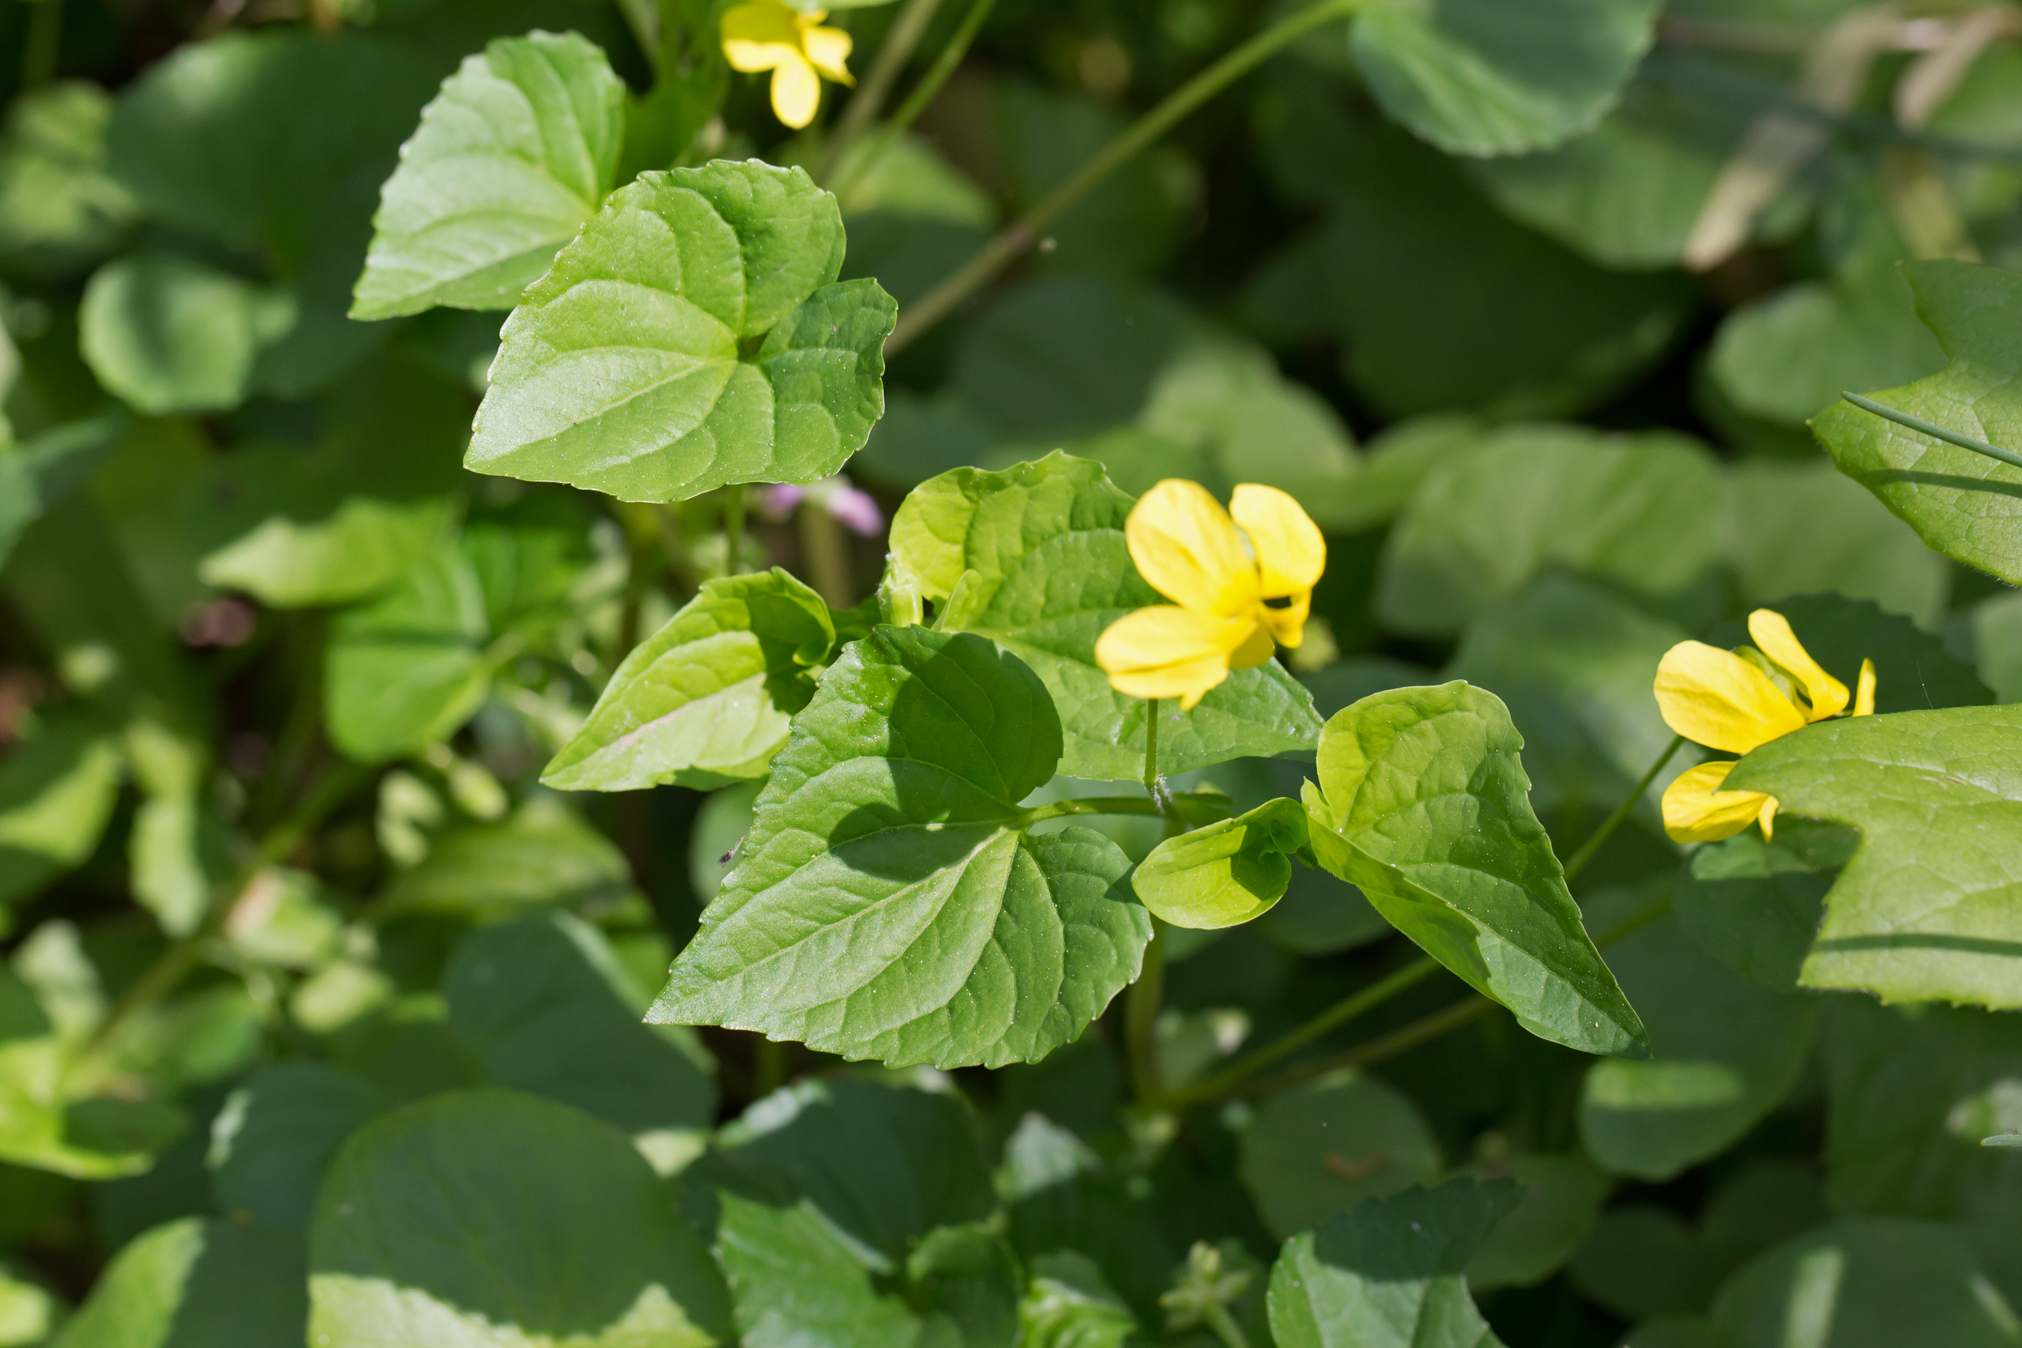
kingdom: Plantae
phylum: Tracheophyta
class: Magnoliopsida
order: Malpighiales
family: Violaceae
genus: Viola
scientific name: Viola eriocarpa
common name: Smooth yellow violet
